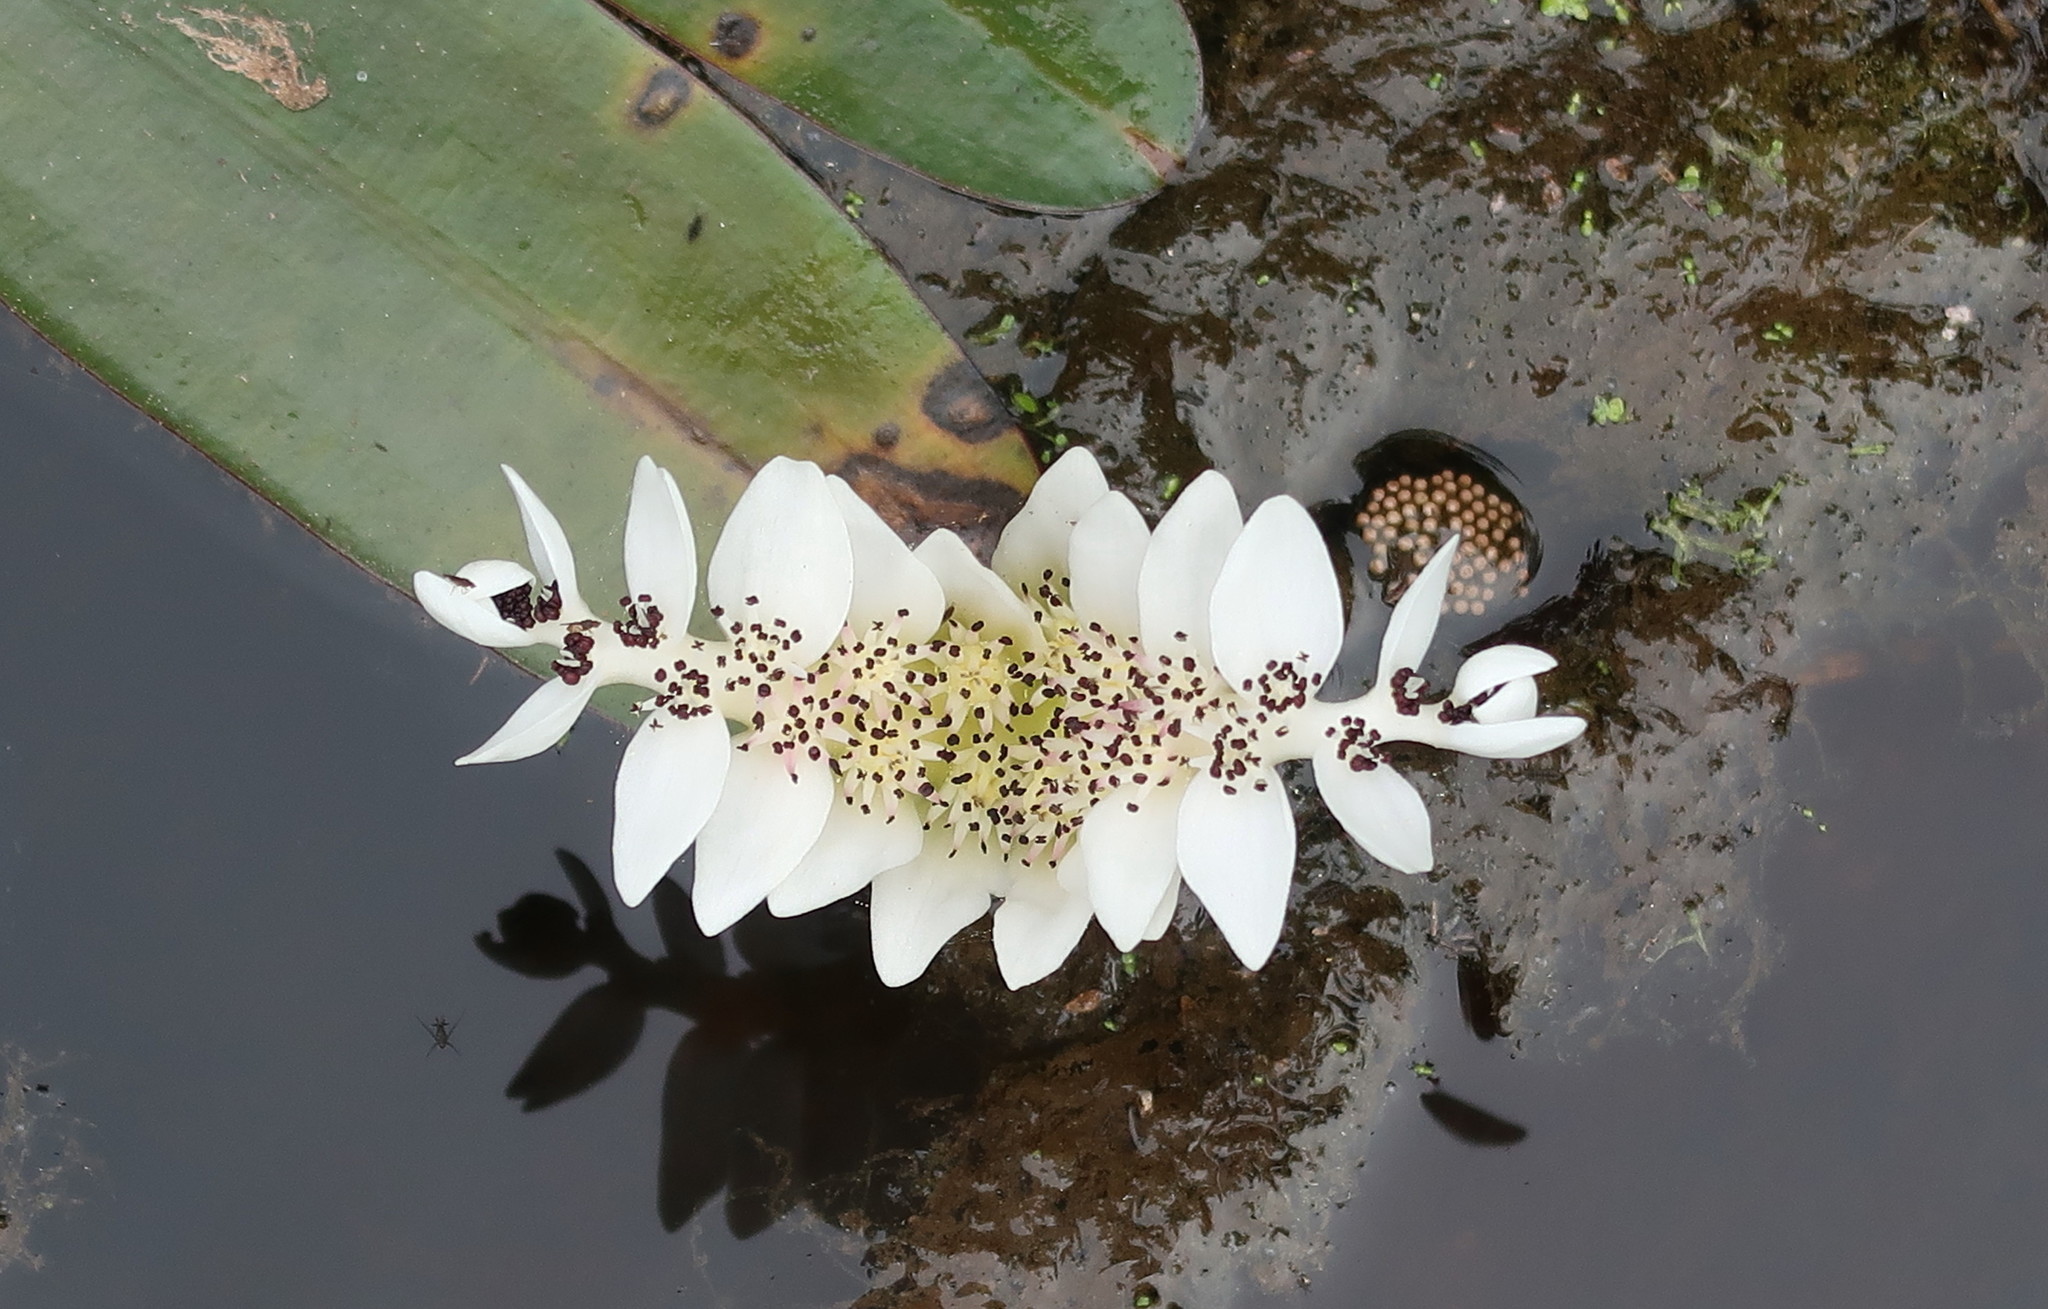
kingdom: Plantae
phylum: Tracheophyta
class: Liliopsida
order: Alismatales
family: Aponogetonaceae
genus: Aponogeton
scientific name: Aponogeton distachyos
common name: Cape-pondweed
